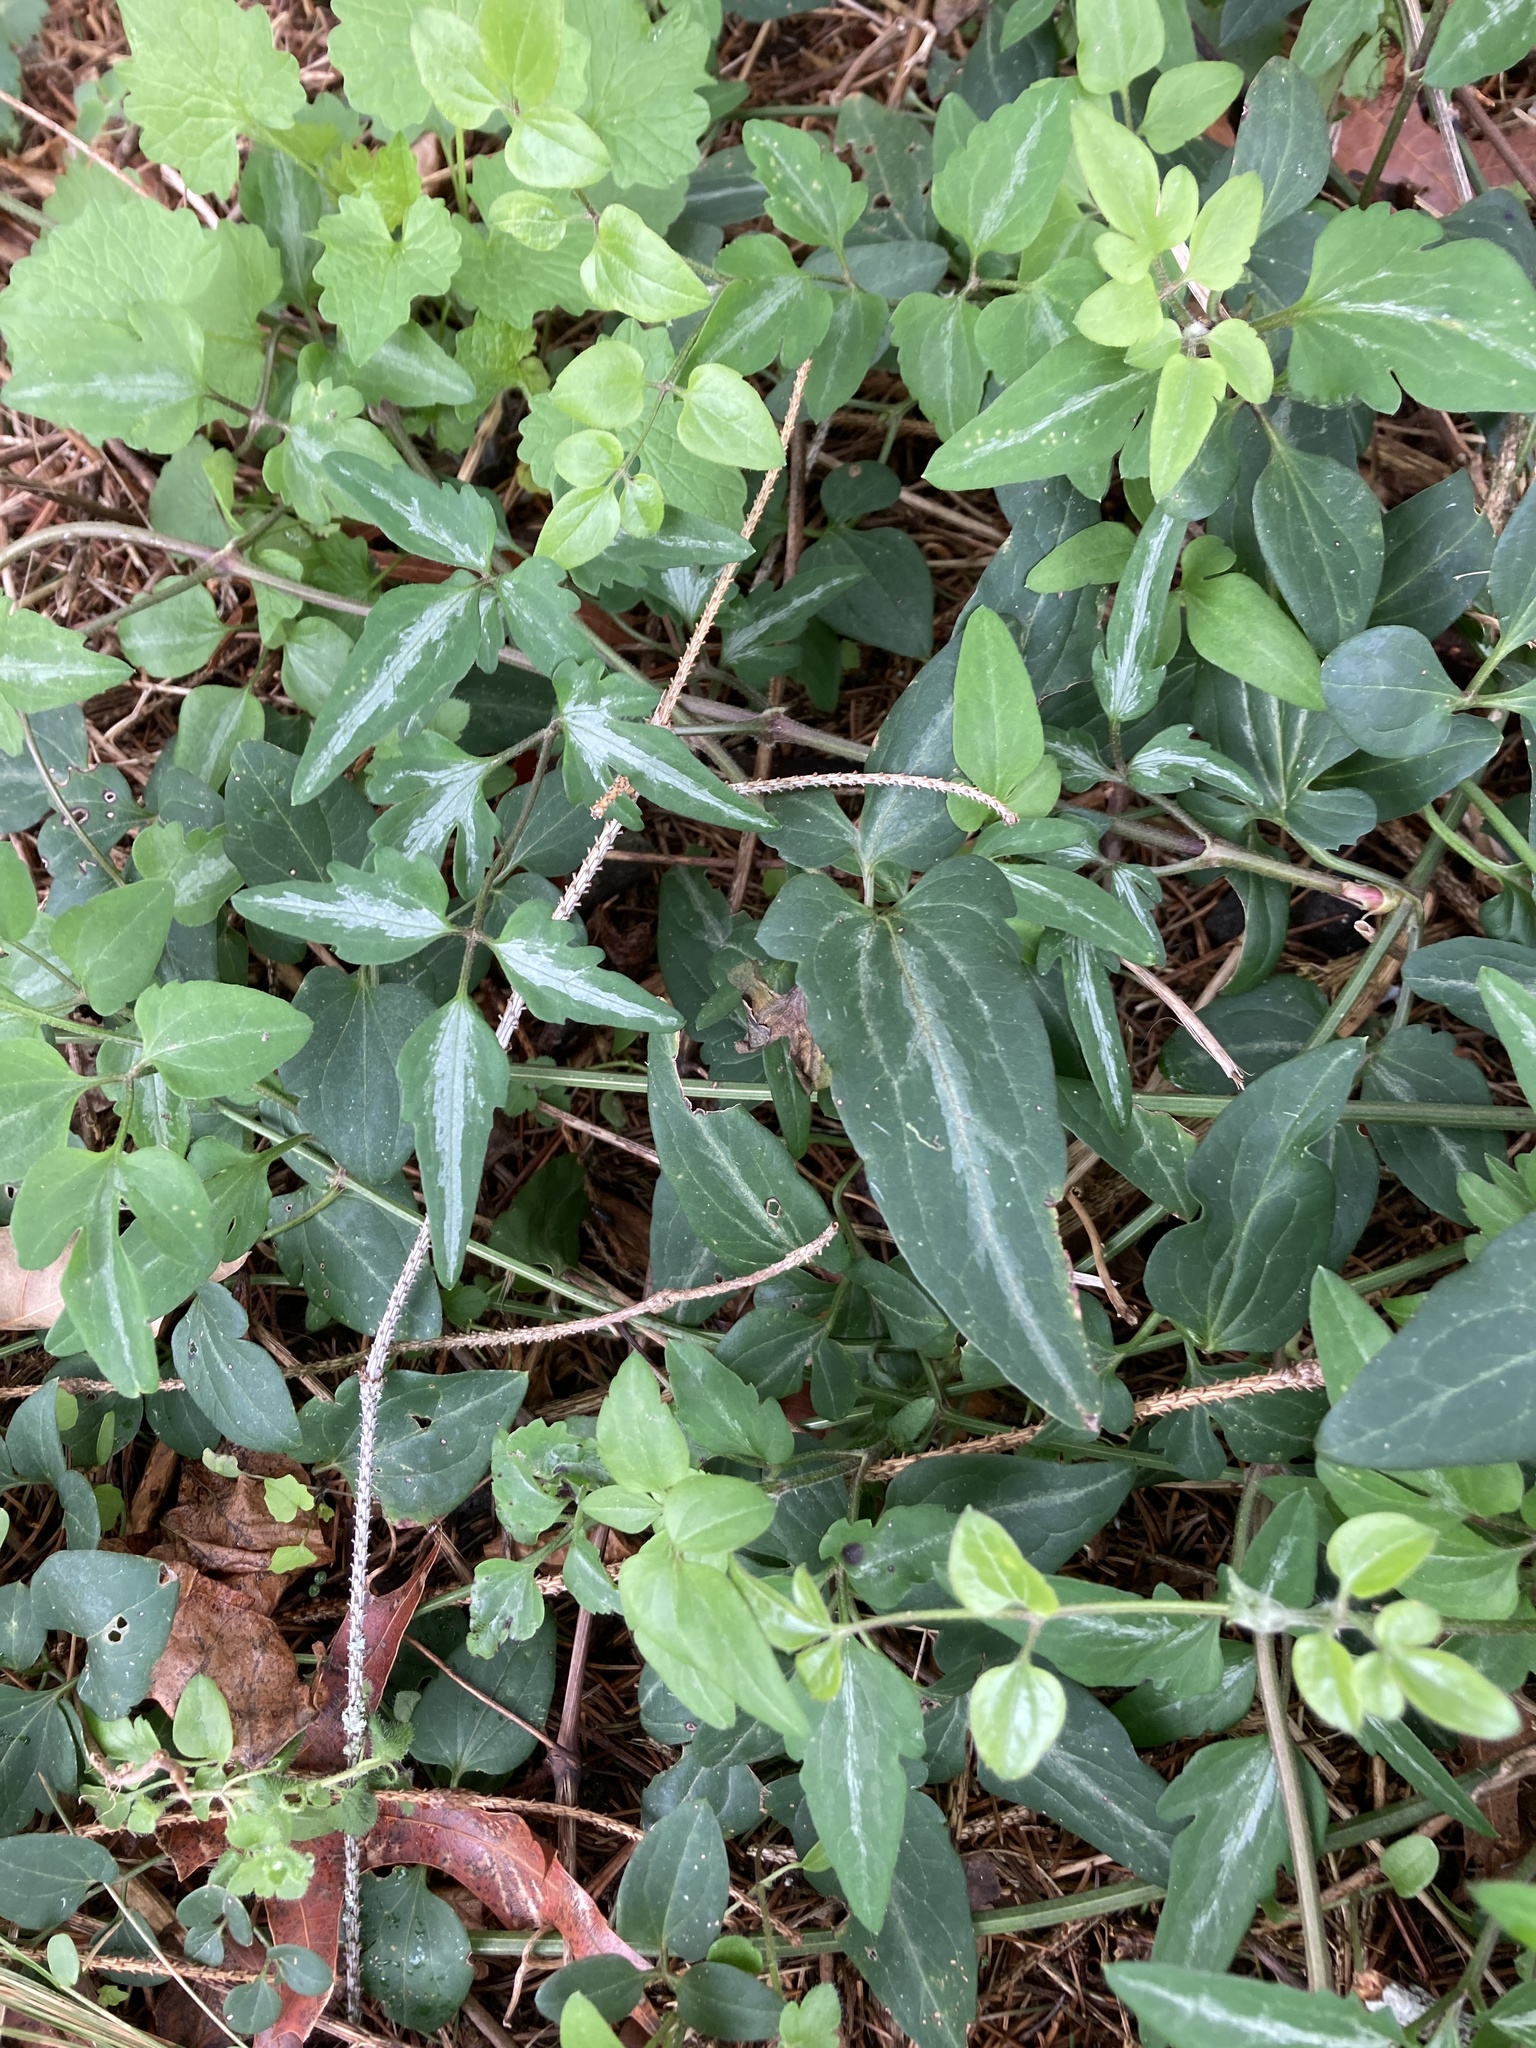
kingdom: Plantae
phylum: Tracheophyta
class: Magnoliopsida
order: Ranunculales
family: Ranunculaceae
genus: Clematis
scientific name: Clematis terniflora
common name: Sweet autumn clematis
